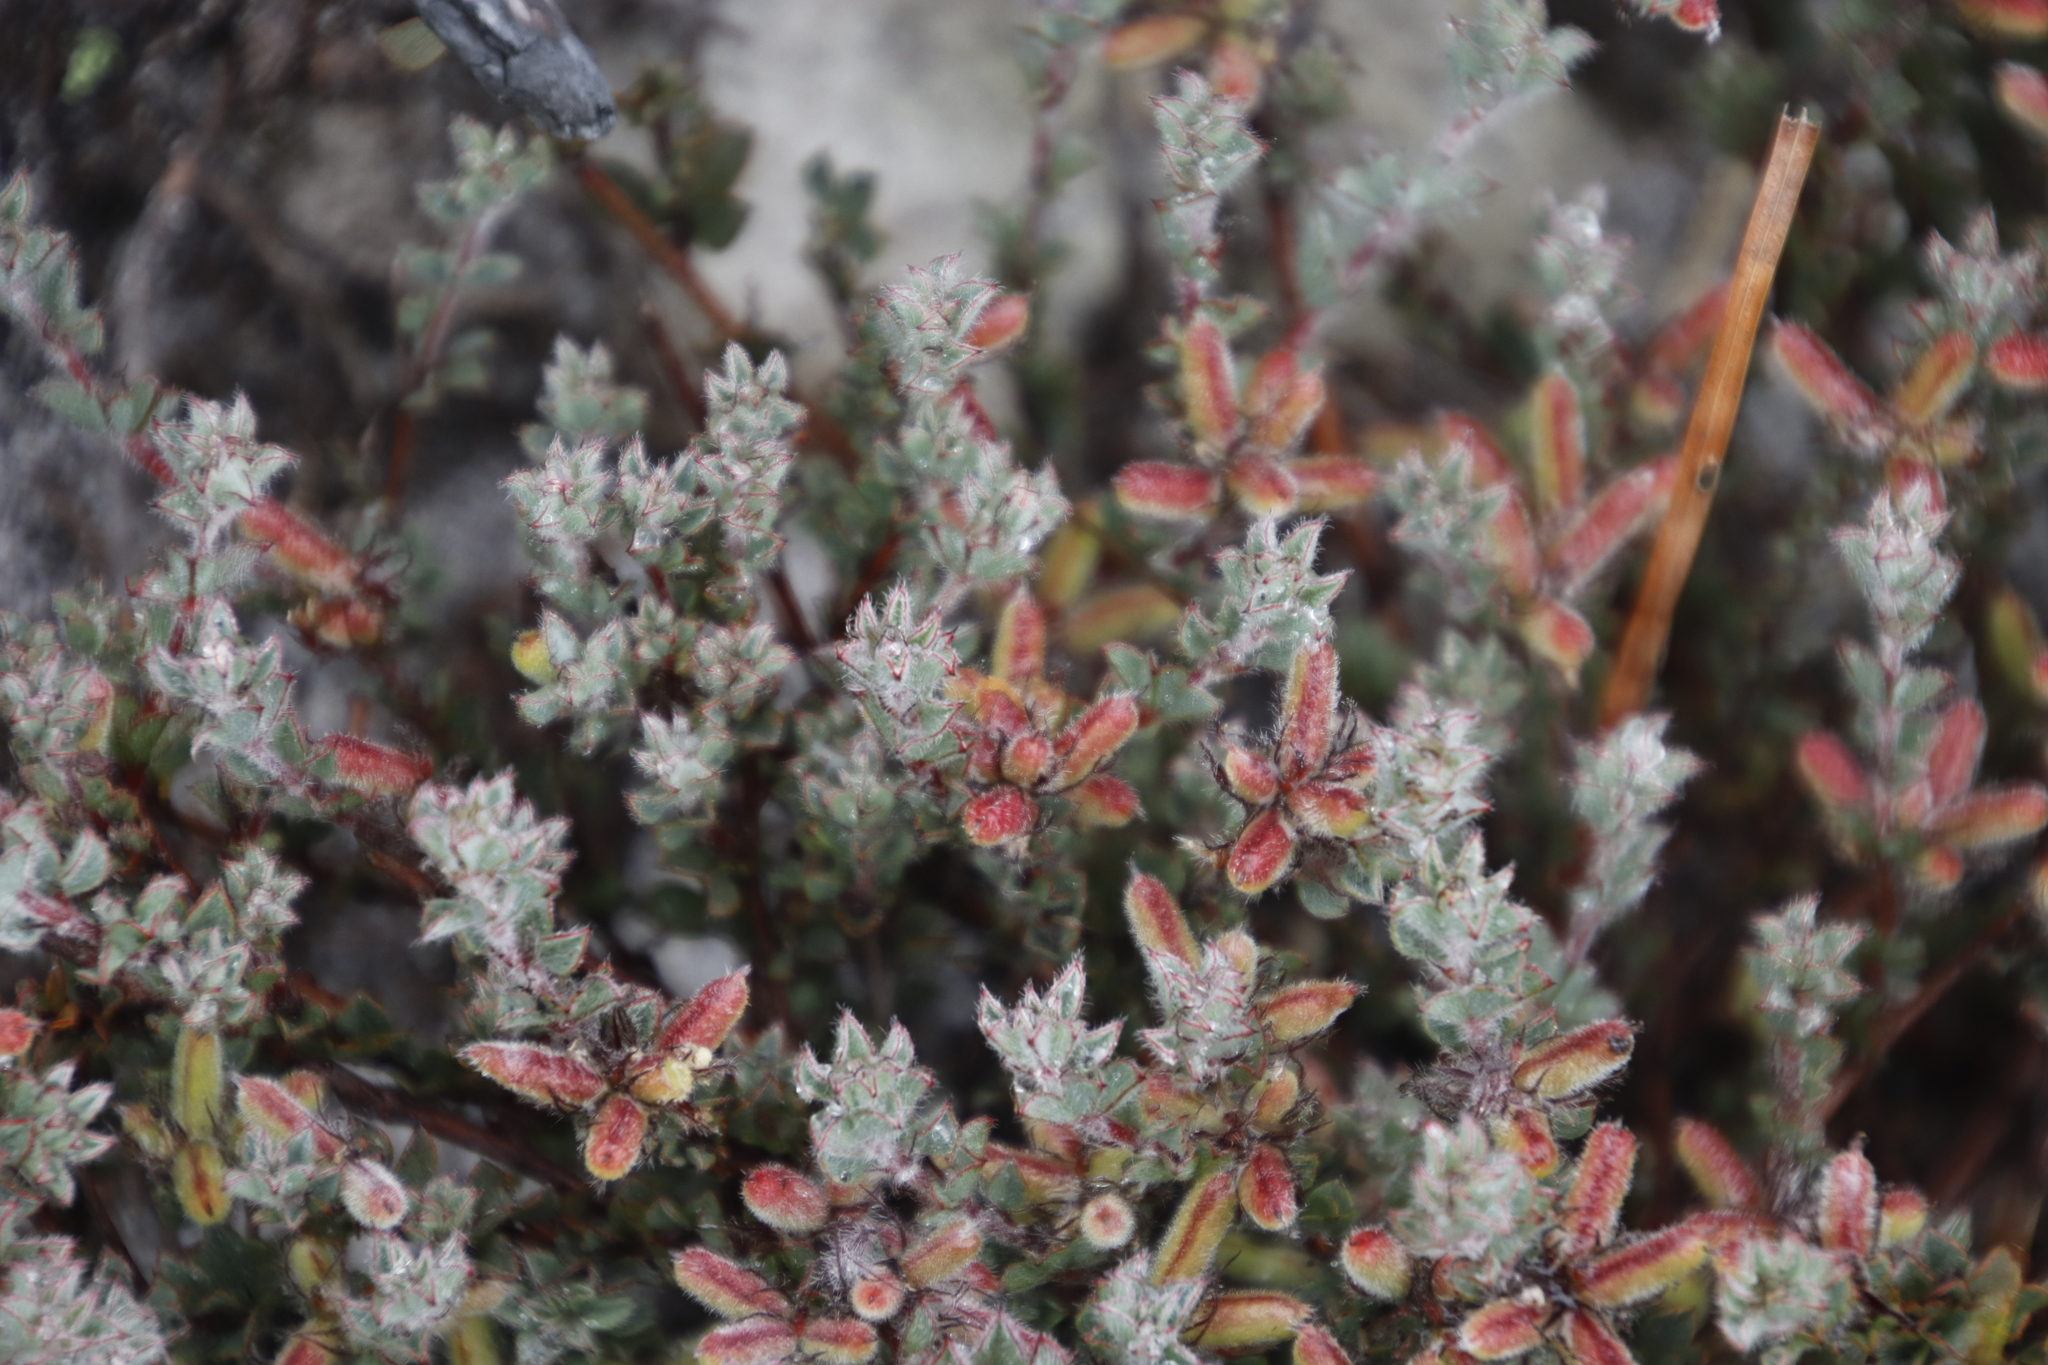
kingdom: Plantae
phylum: Tracheophyta
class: Magnoliopsida
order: Fabales
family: Fabaceae
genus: Indigofera
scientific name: Indigofera glomerata
